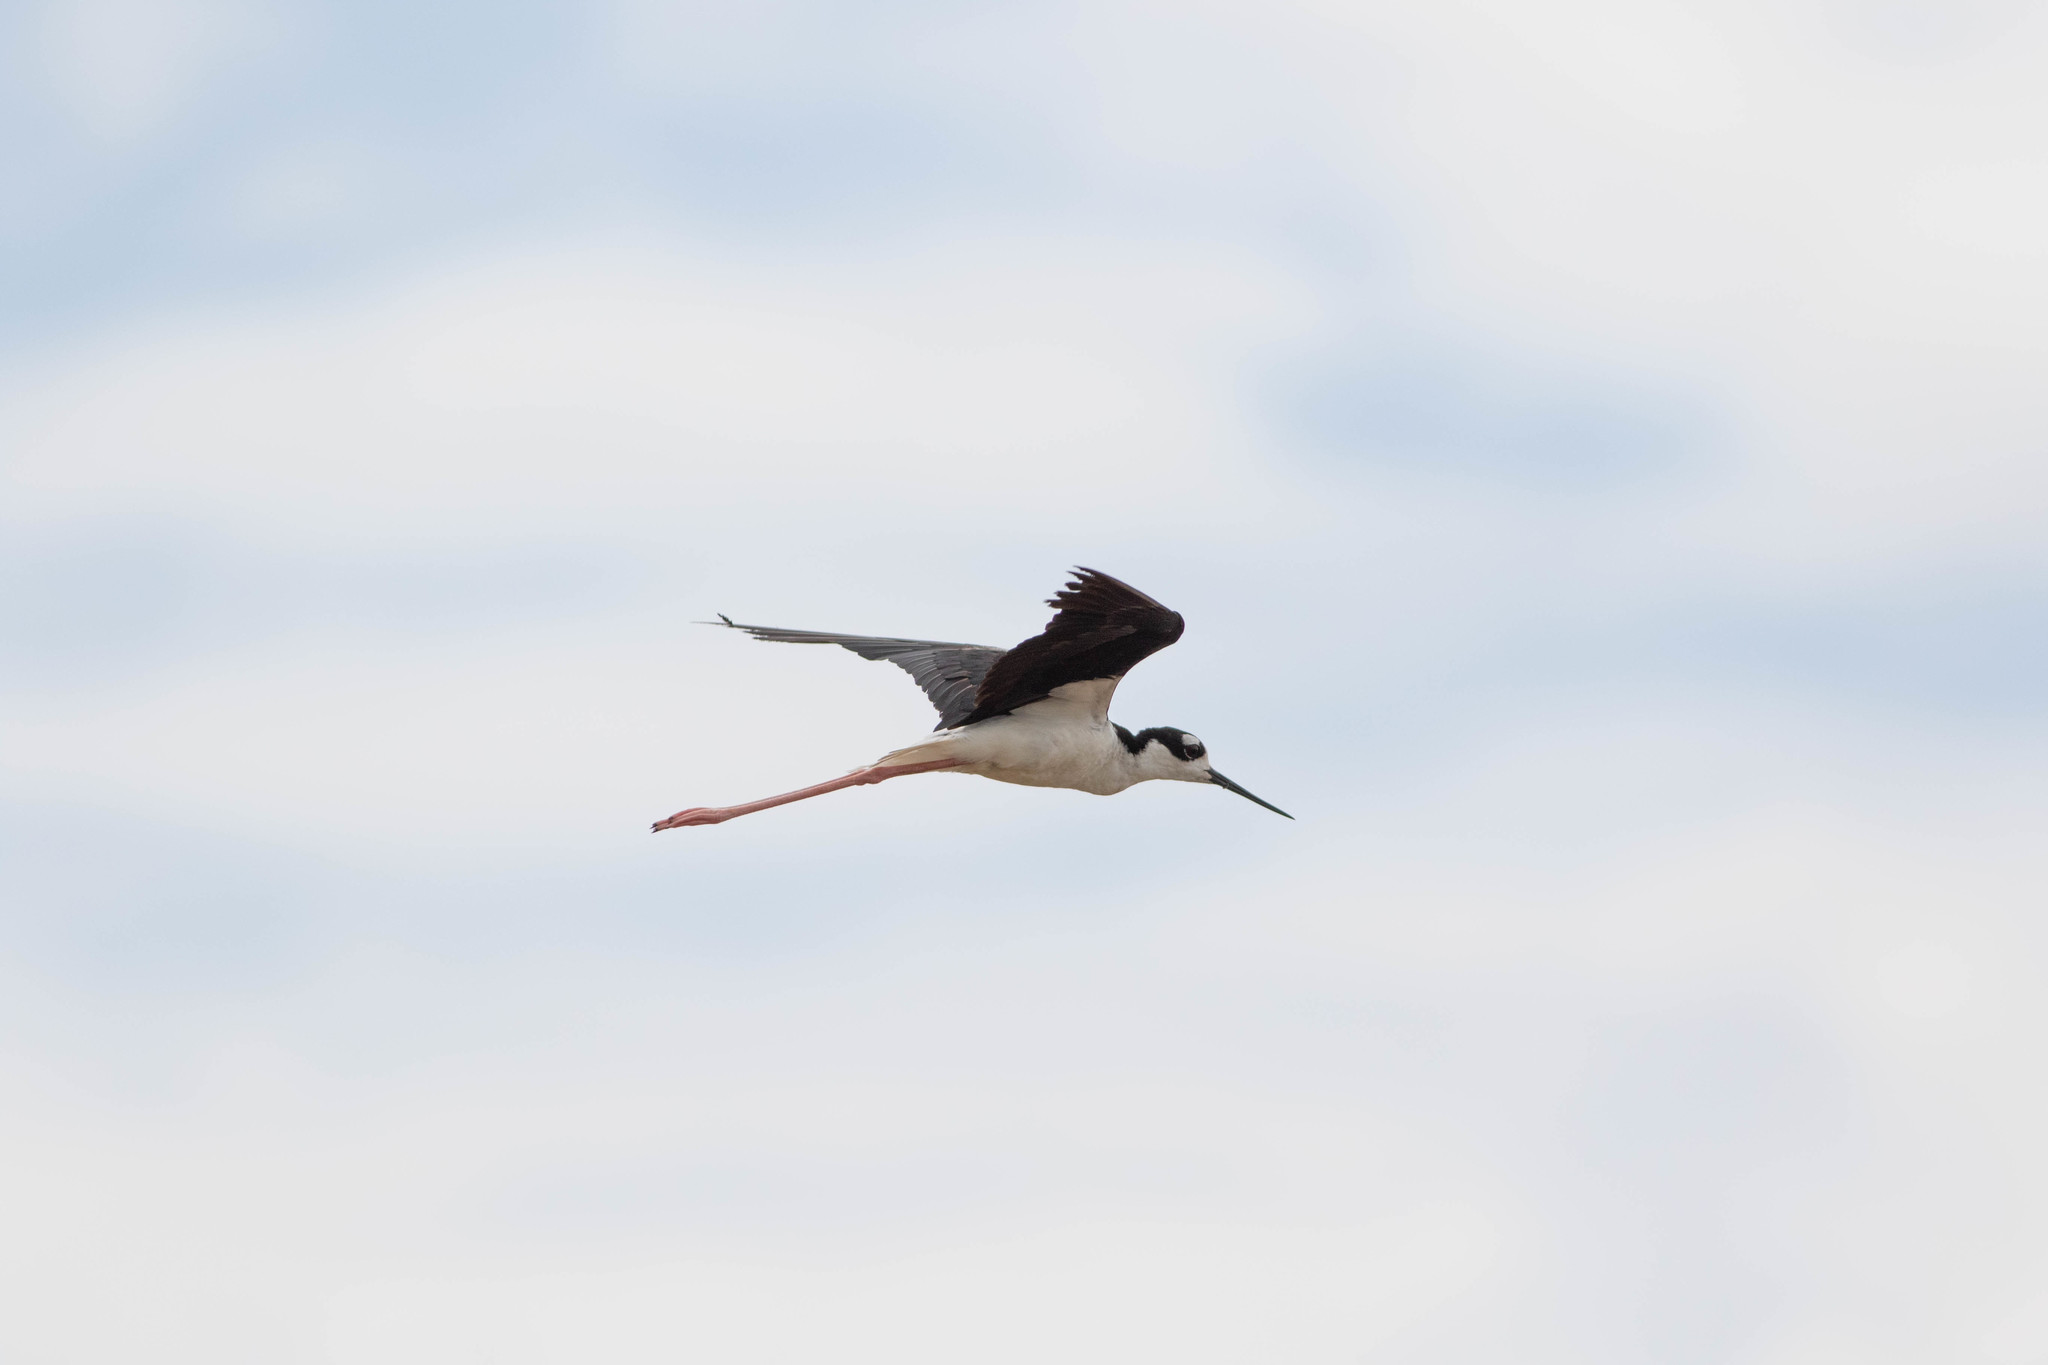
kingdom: Animalia
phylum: Chordata
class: Aves
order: Charadriiformes
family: Recurvirostridae
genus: Himantopus
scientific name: Himantopus mexicanus
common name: Black-necked stilt
